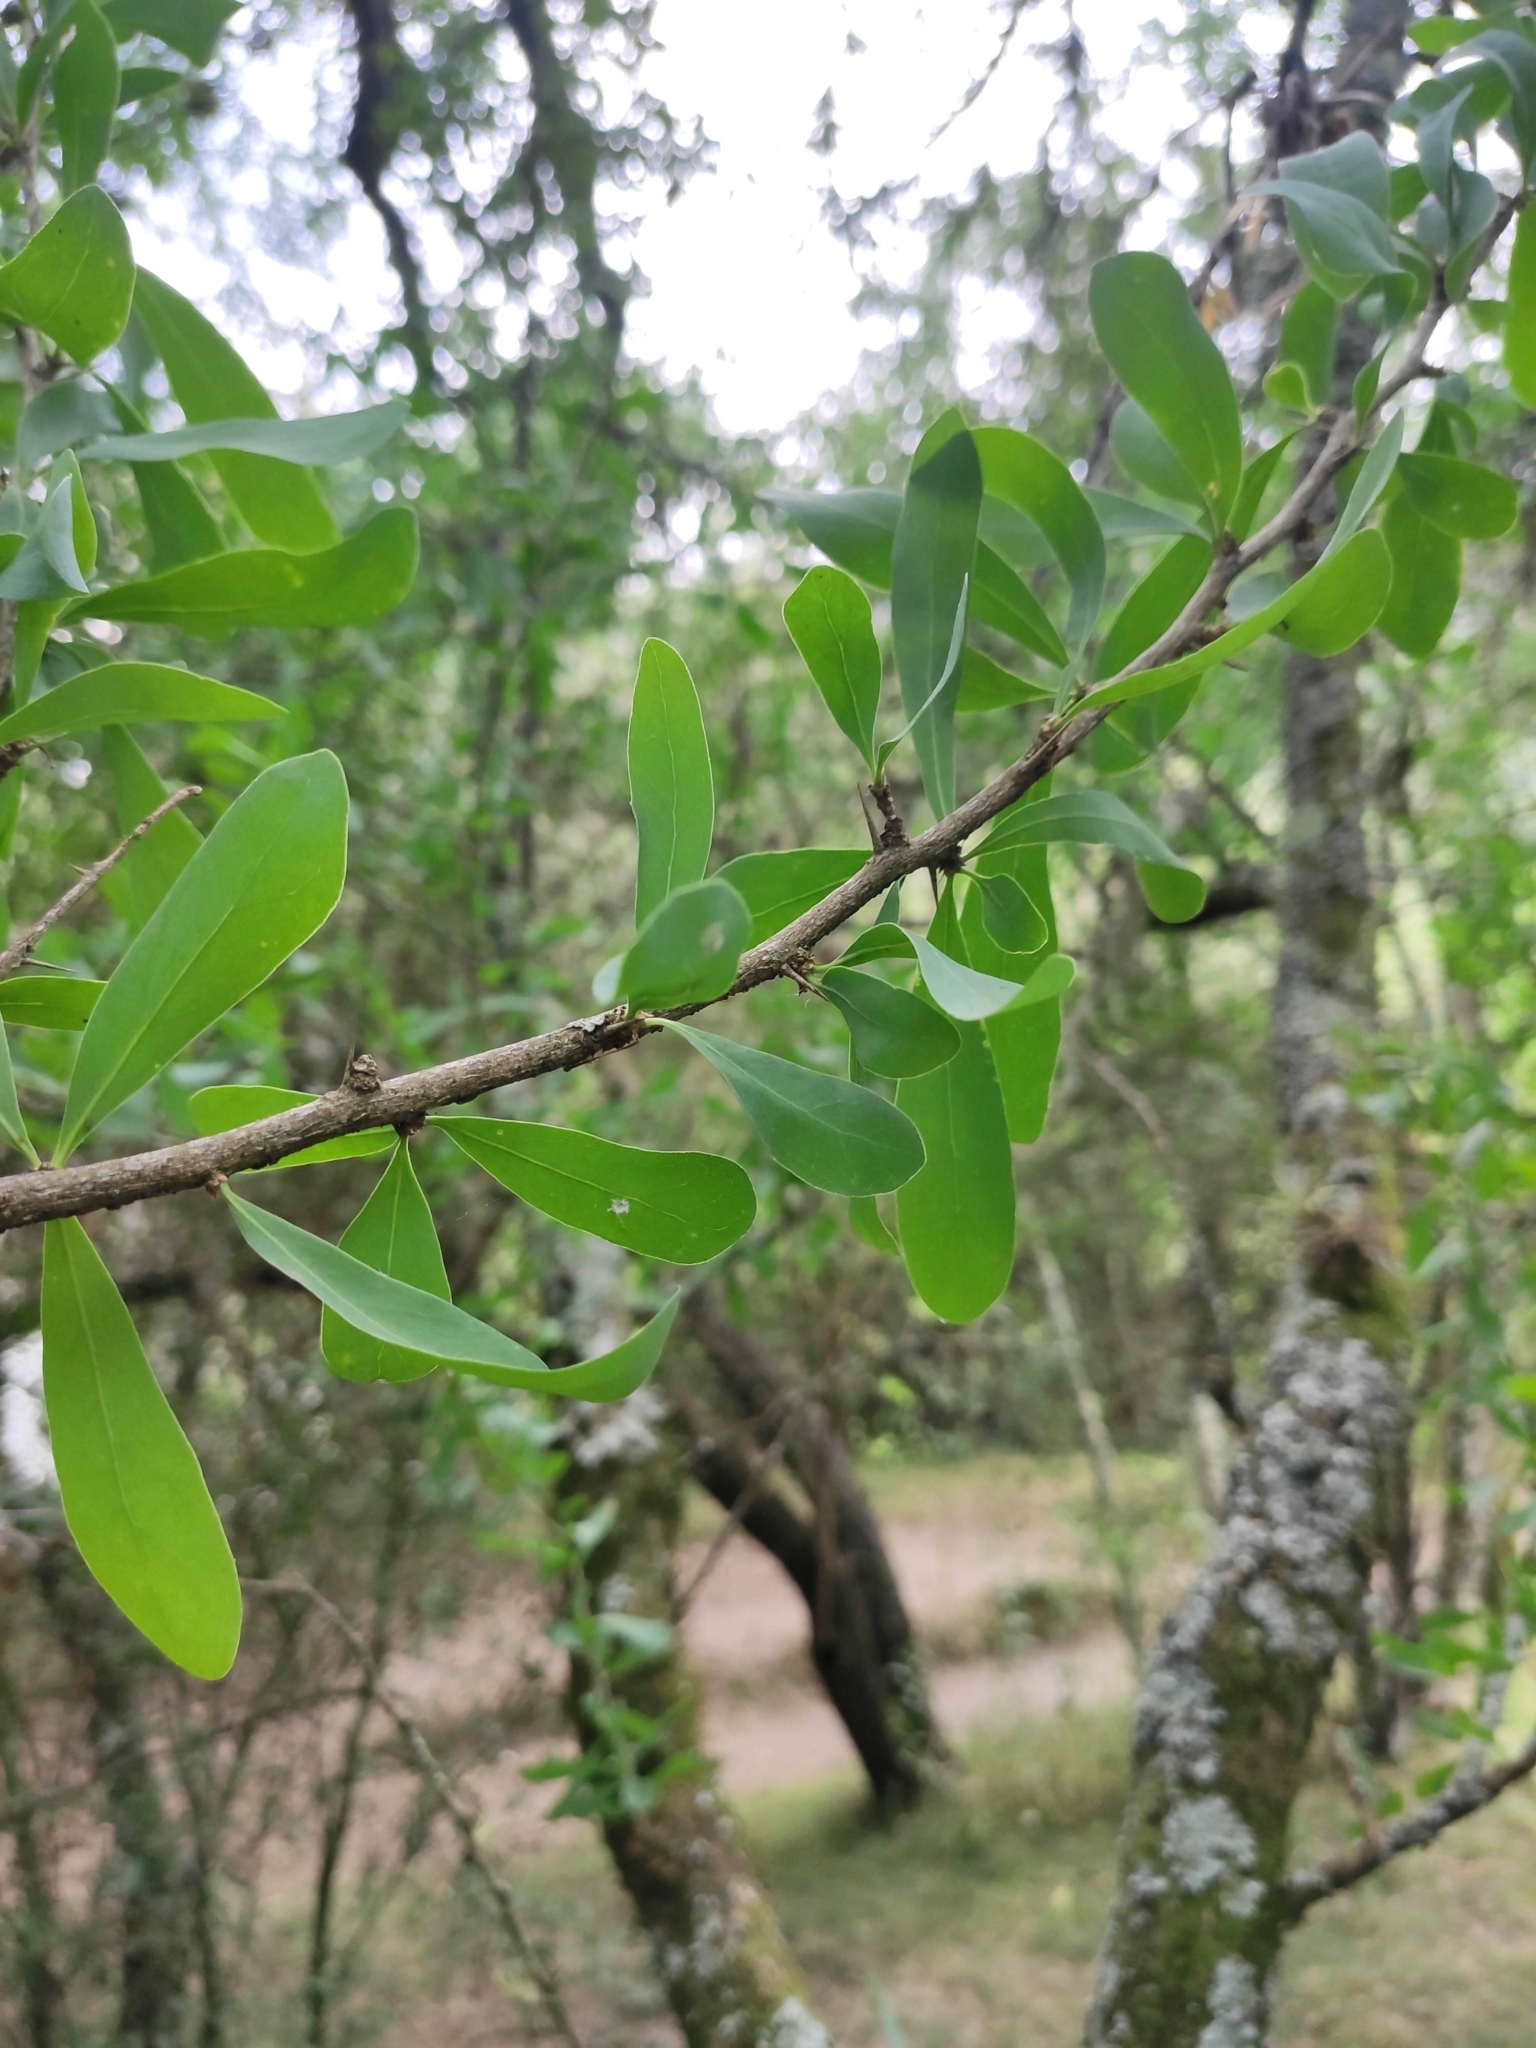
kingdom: Plantae
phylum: Tracheophyta
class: Magnoliopsida
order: Santalales
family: Cervantesiaceae
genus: Acanthosyris
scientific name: Acanthosyris spinescens
